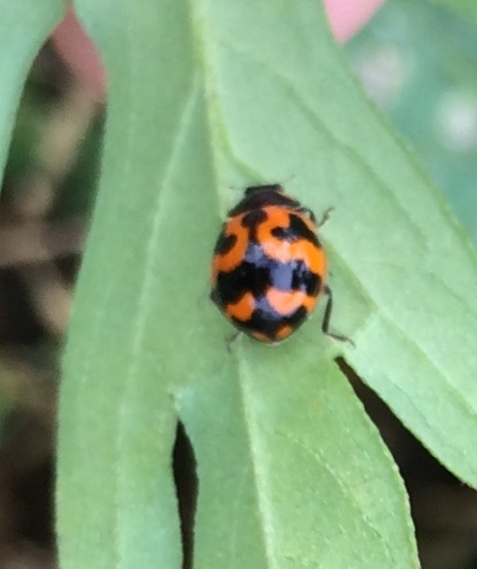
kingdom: Animalia
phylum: Arthropoda
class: Insecta
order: Coleoptera
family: Coccinellidae
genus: Coccinella
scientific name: Coccinella transversalis
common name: Transverse lady beetle
